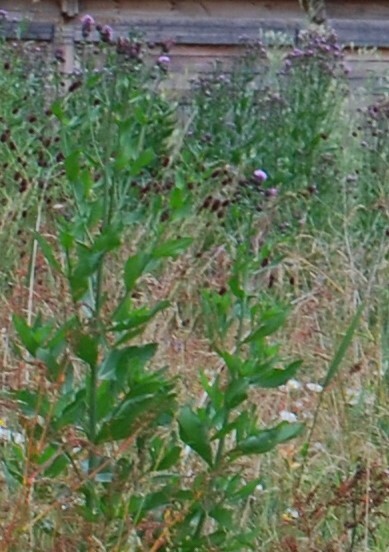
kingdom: Plantae
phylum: Tracheophyta
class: Magnoliopsida
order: Asterales
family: Asteraceae
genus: Cirsium
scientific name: Cirsium arvense
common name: Creeping thistle
